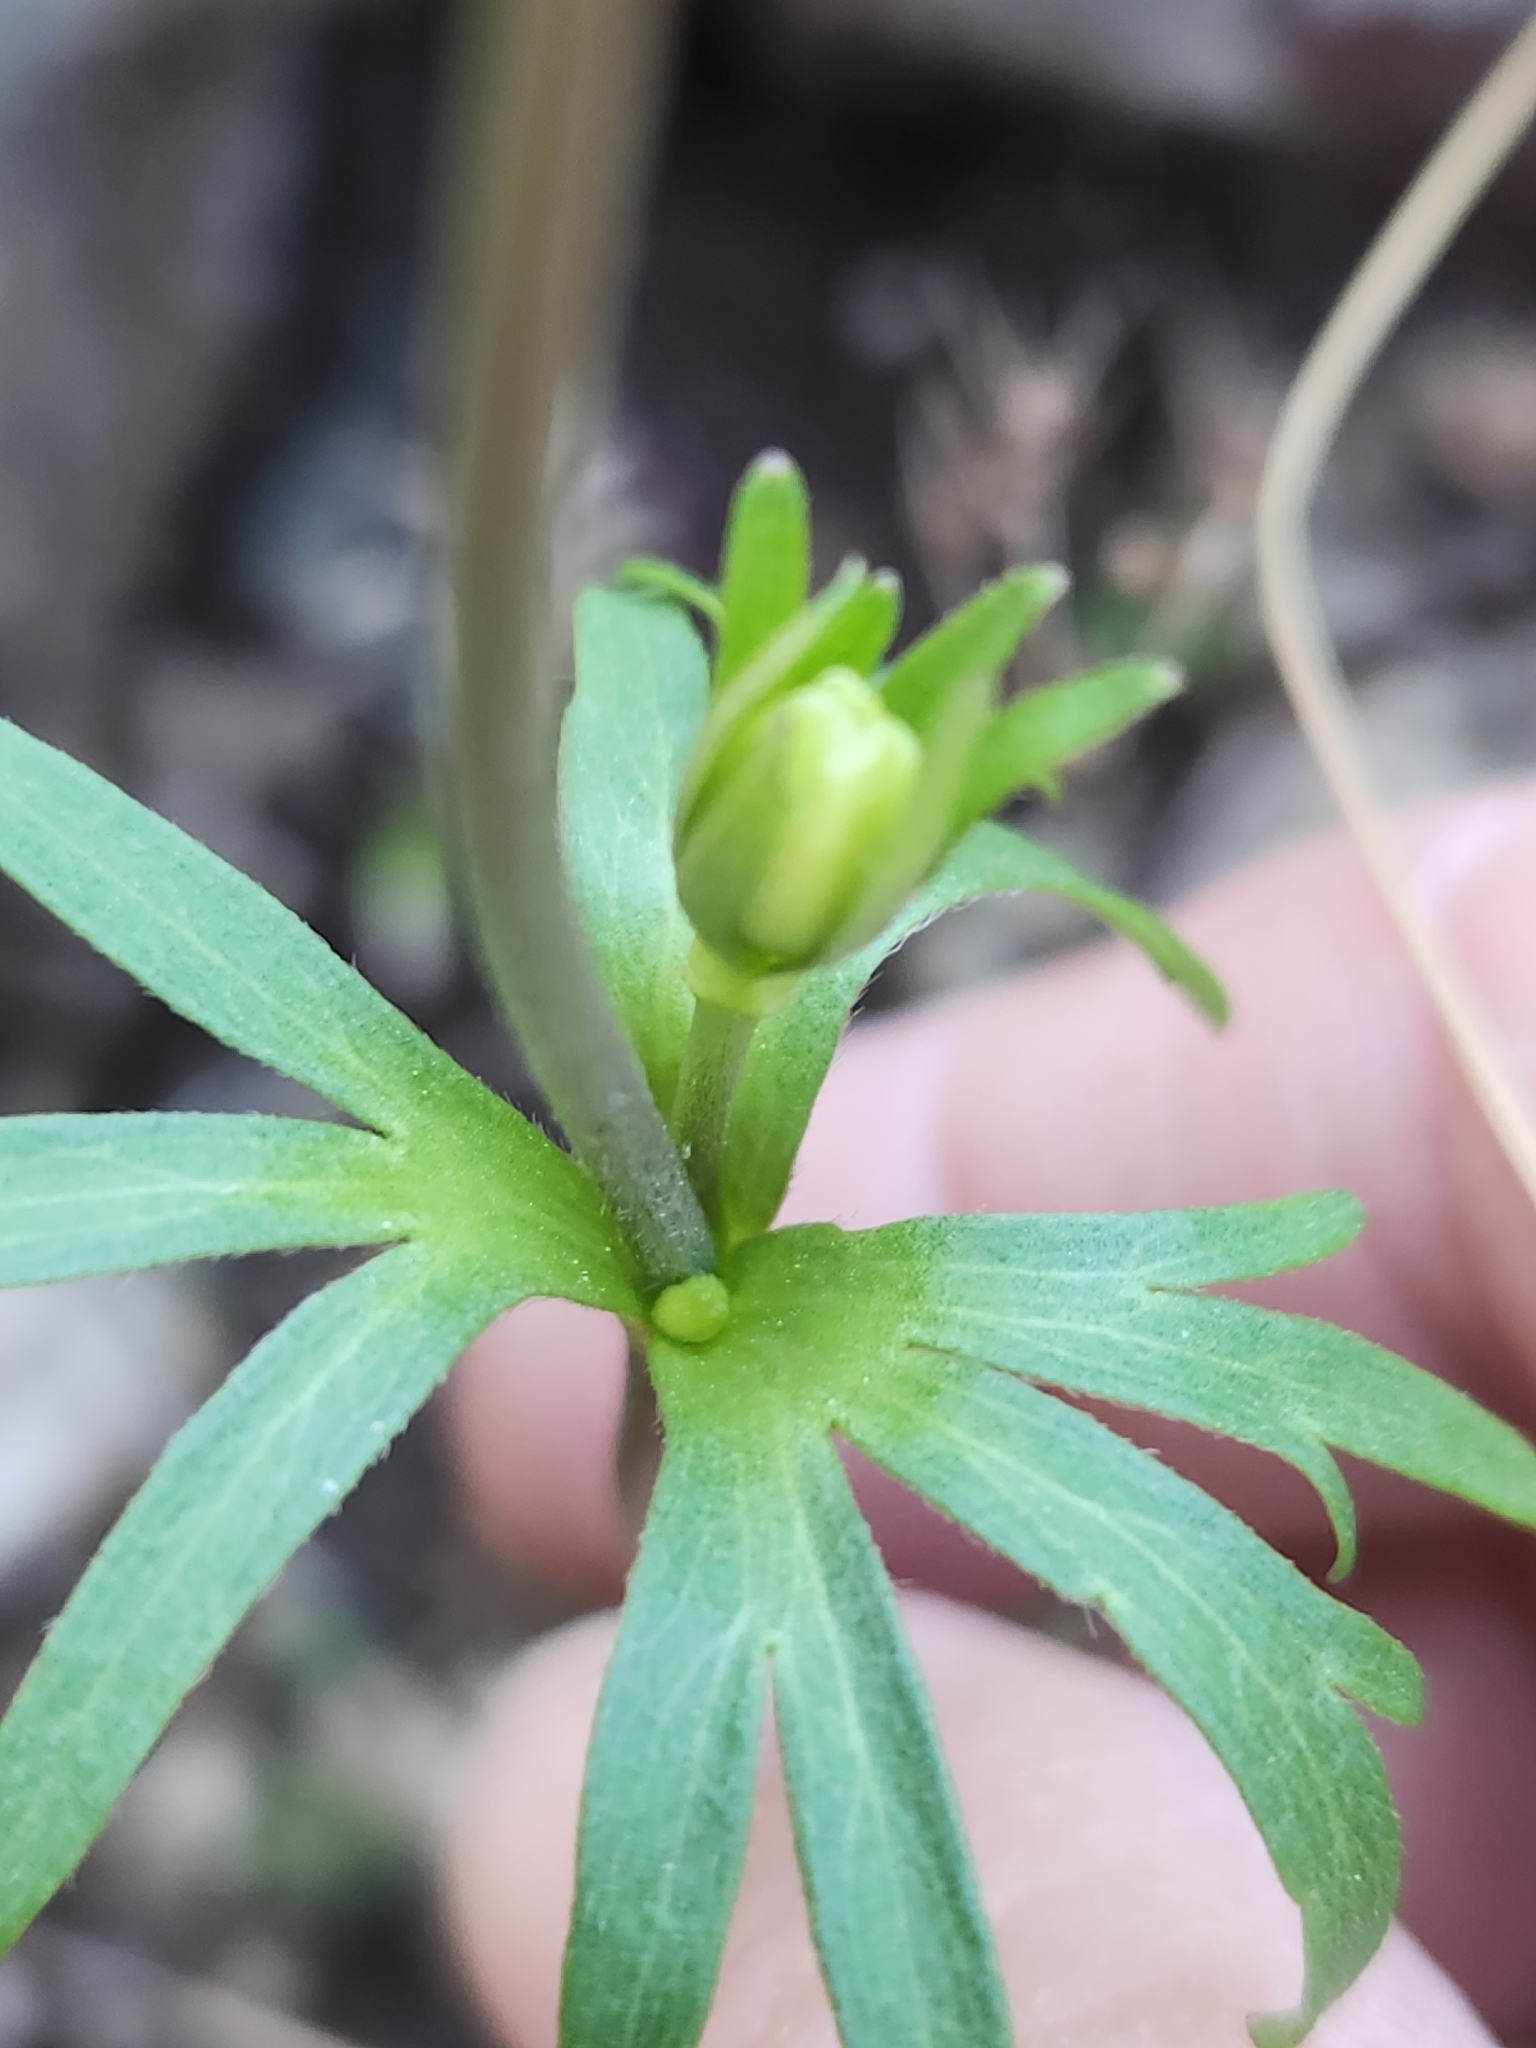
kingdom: Plantae
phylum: Tracheophyta
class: Magnoliopsida
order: Ranunculales
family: Ranunculaceae
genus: Anemone
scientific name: Anemone edwardsiana
